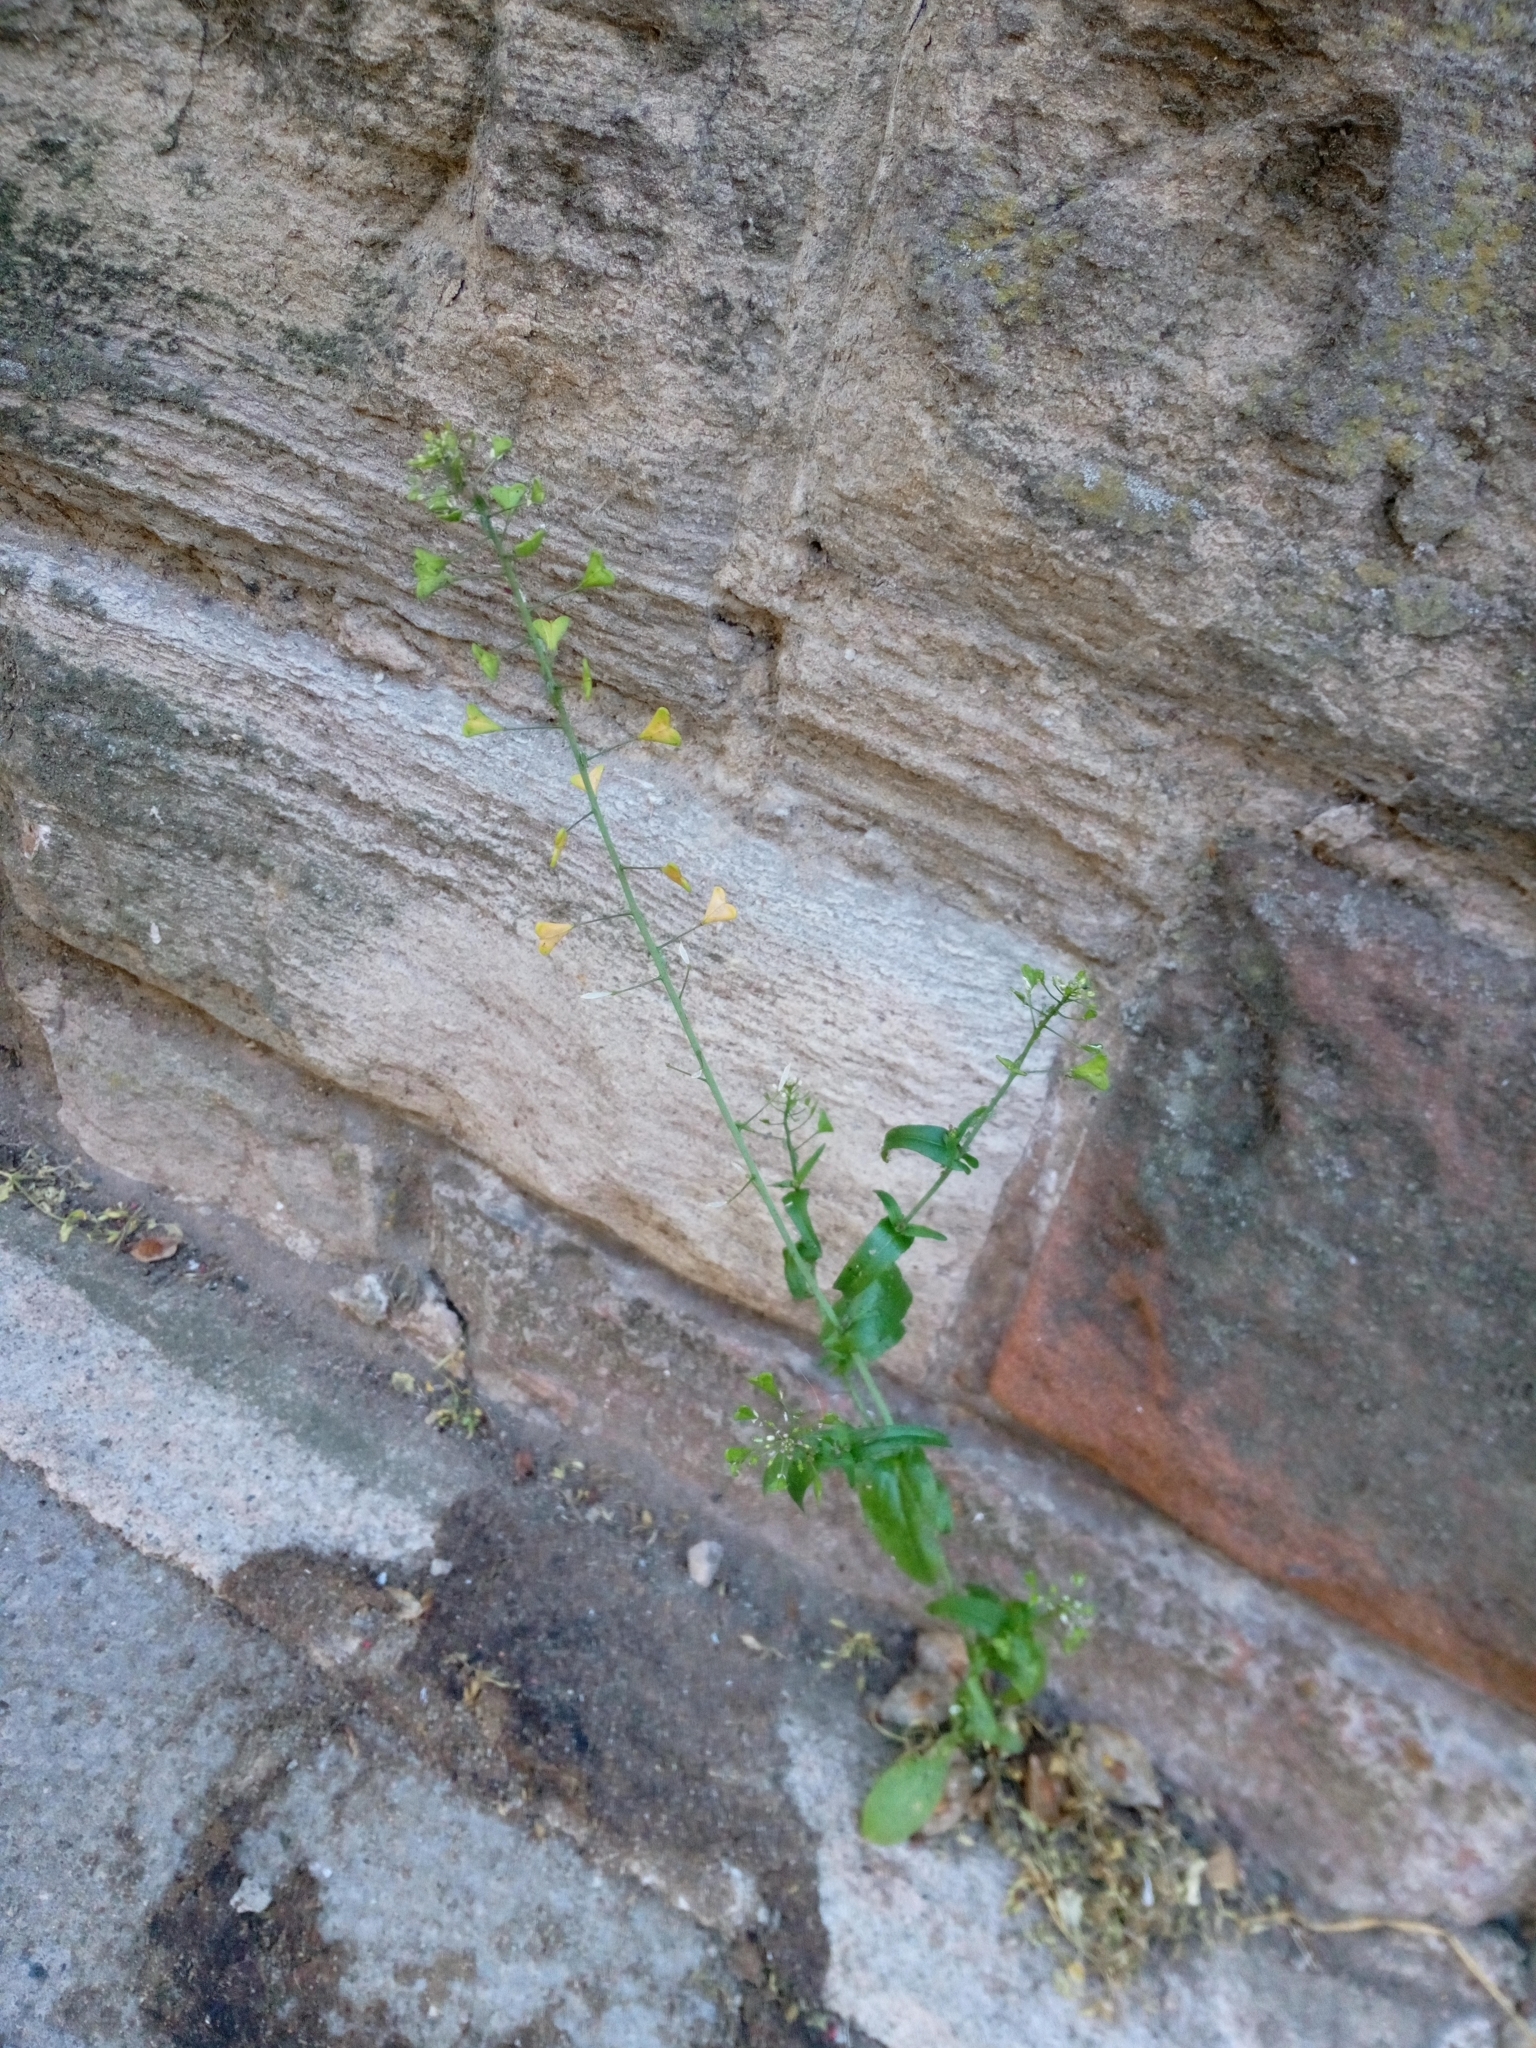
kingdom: Plantae
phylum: Tracheophyta
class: Magnoliopsida
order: Brassicales
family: Brassicaceae
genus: Capsella
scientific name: Capsella bursa-pastoris
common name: Shepherd's purse
